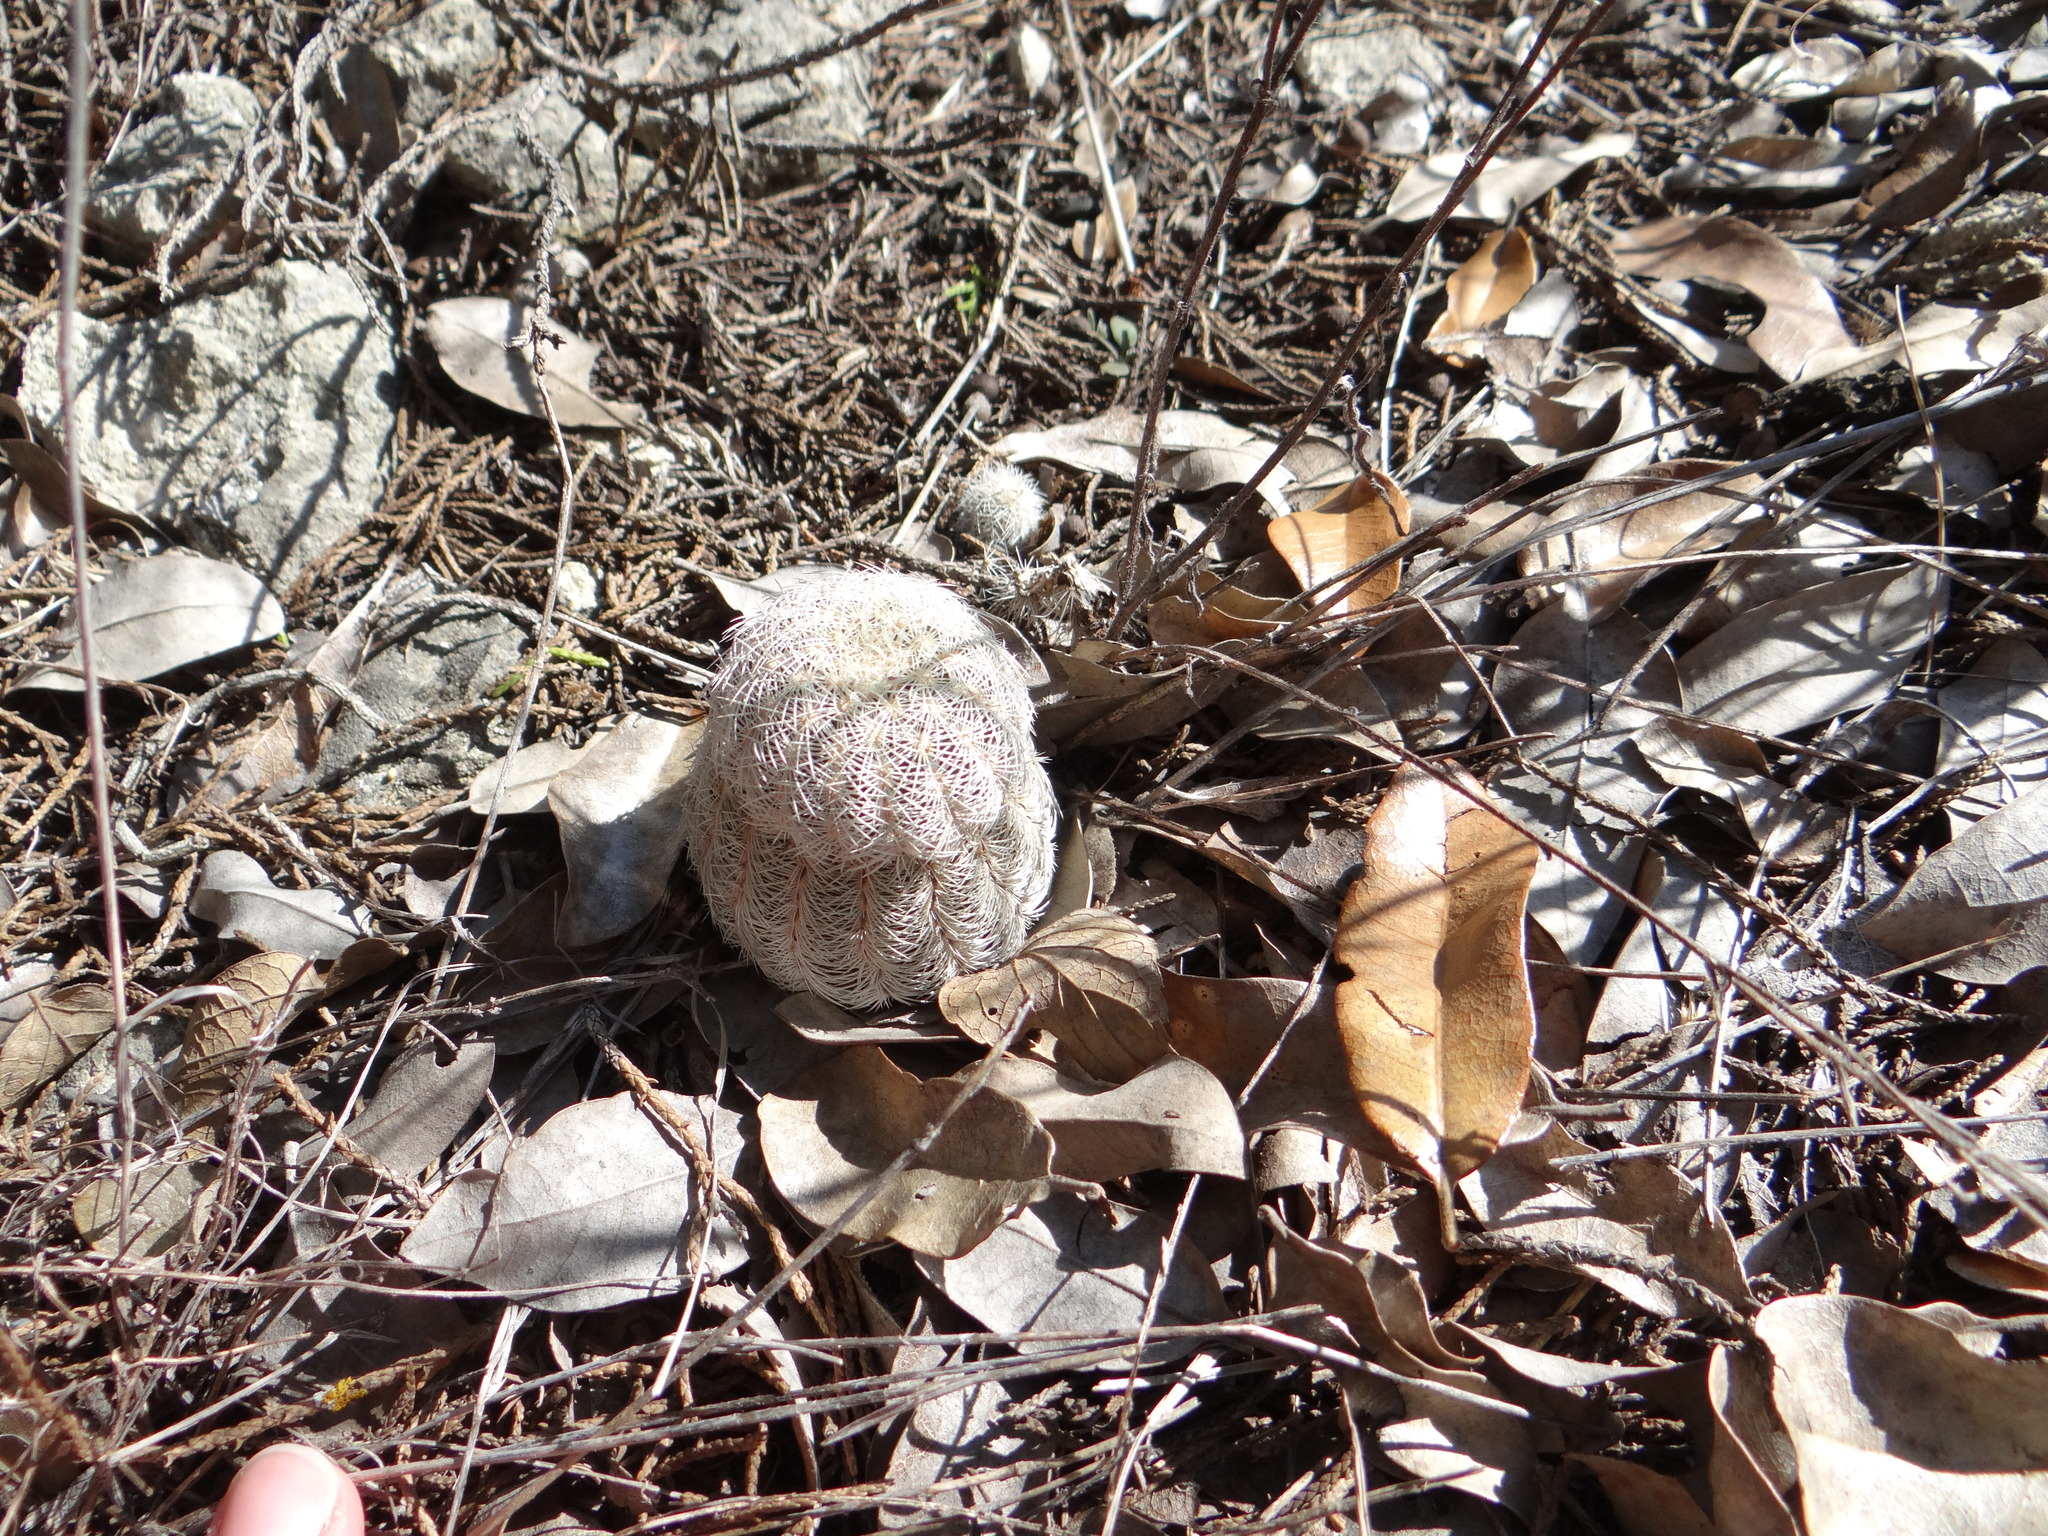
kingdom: Plantae
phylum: Tracheophyta
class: Magnoliopsida
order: Caryophyllales
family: Cactaceae
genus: Echinocereus
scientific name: Echinocereus reichenbachii
